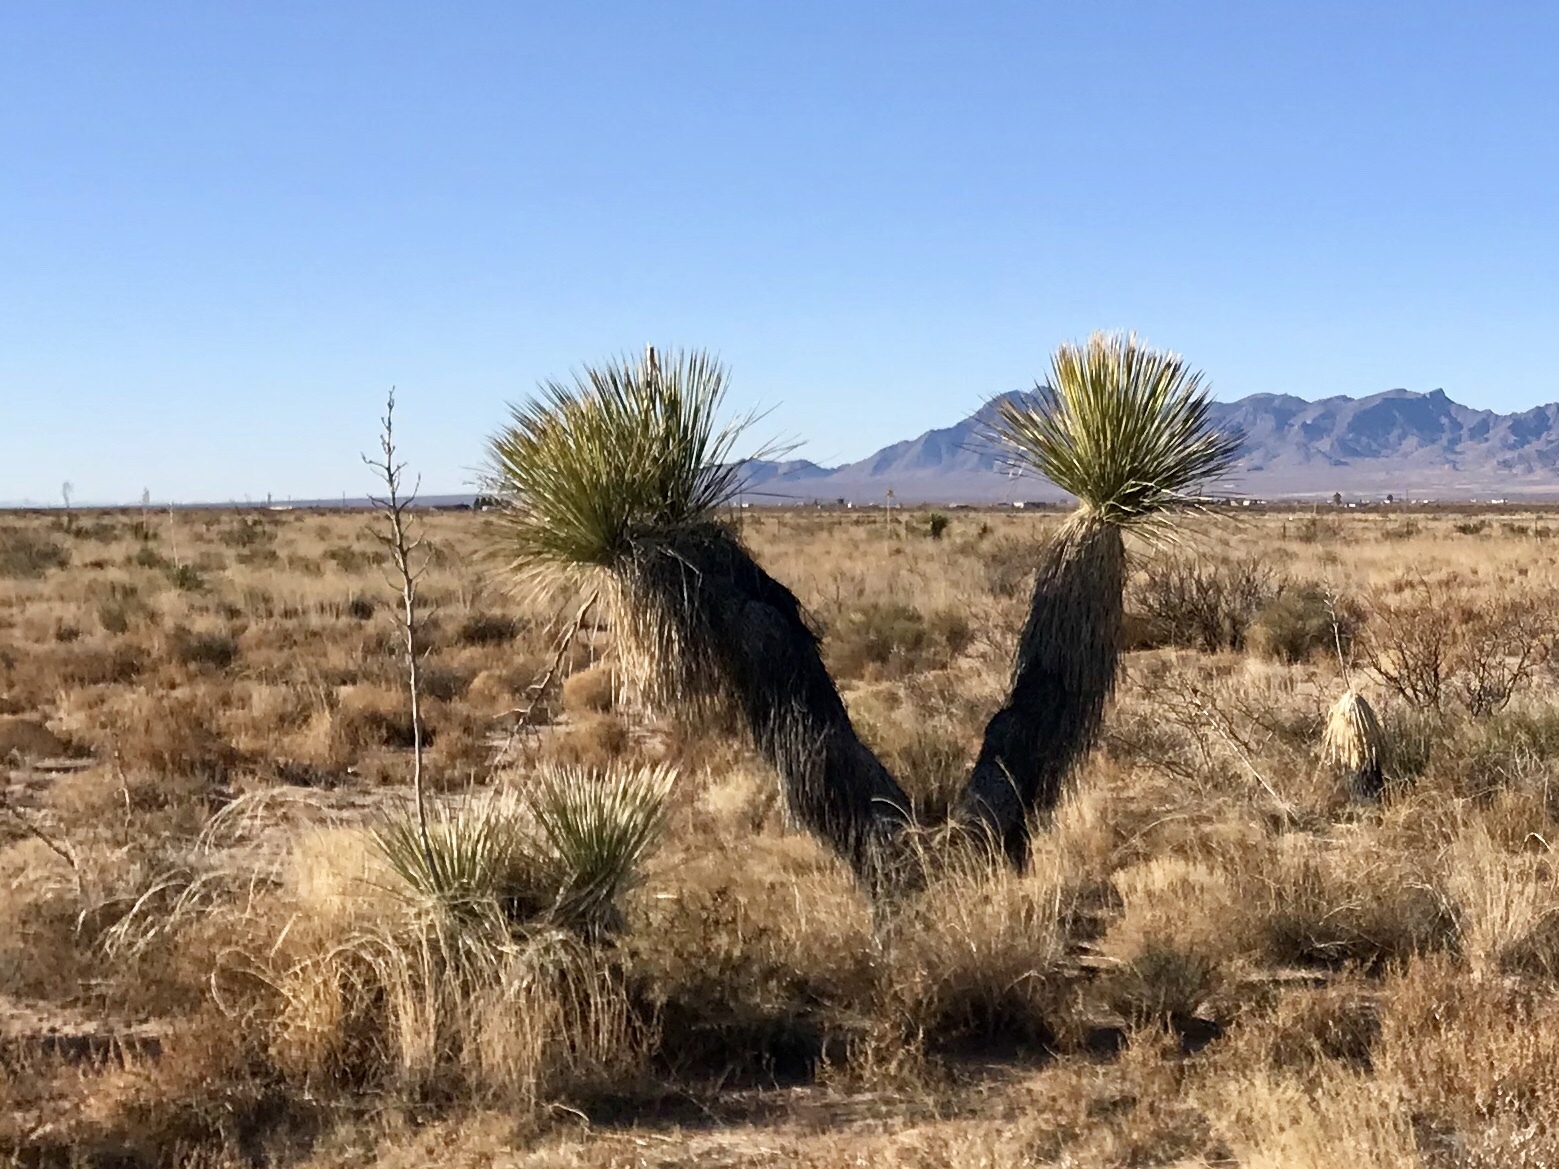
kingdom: Plantae
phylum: Tracheophyta
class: Liliopsida
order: Asparagales
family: Asparagaceae
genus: Yucca
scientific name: Yucca elata
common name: Palmella
